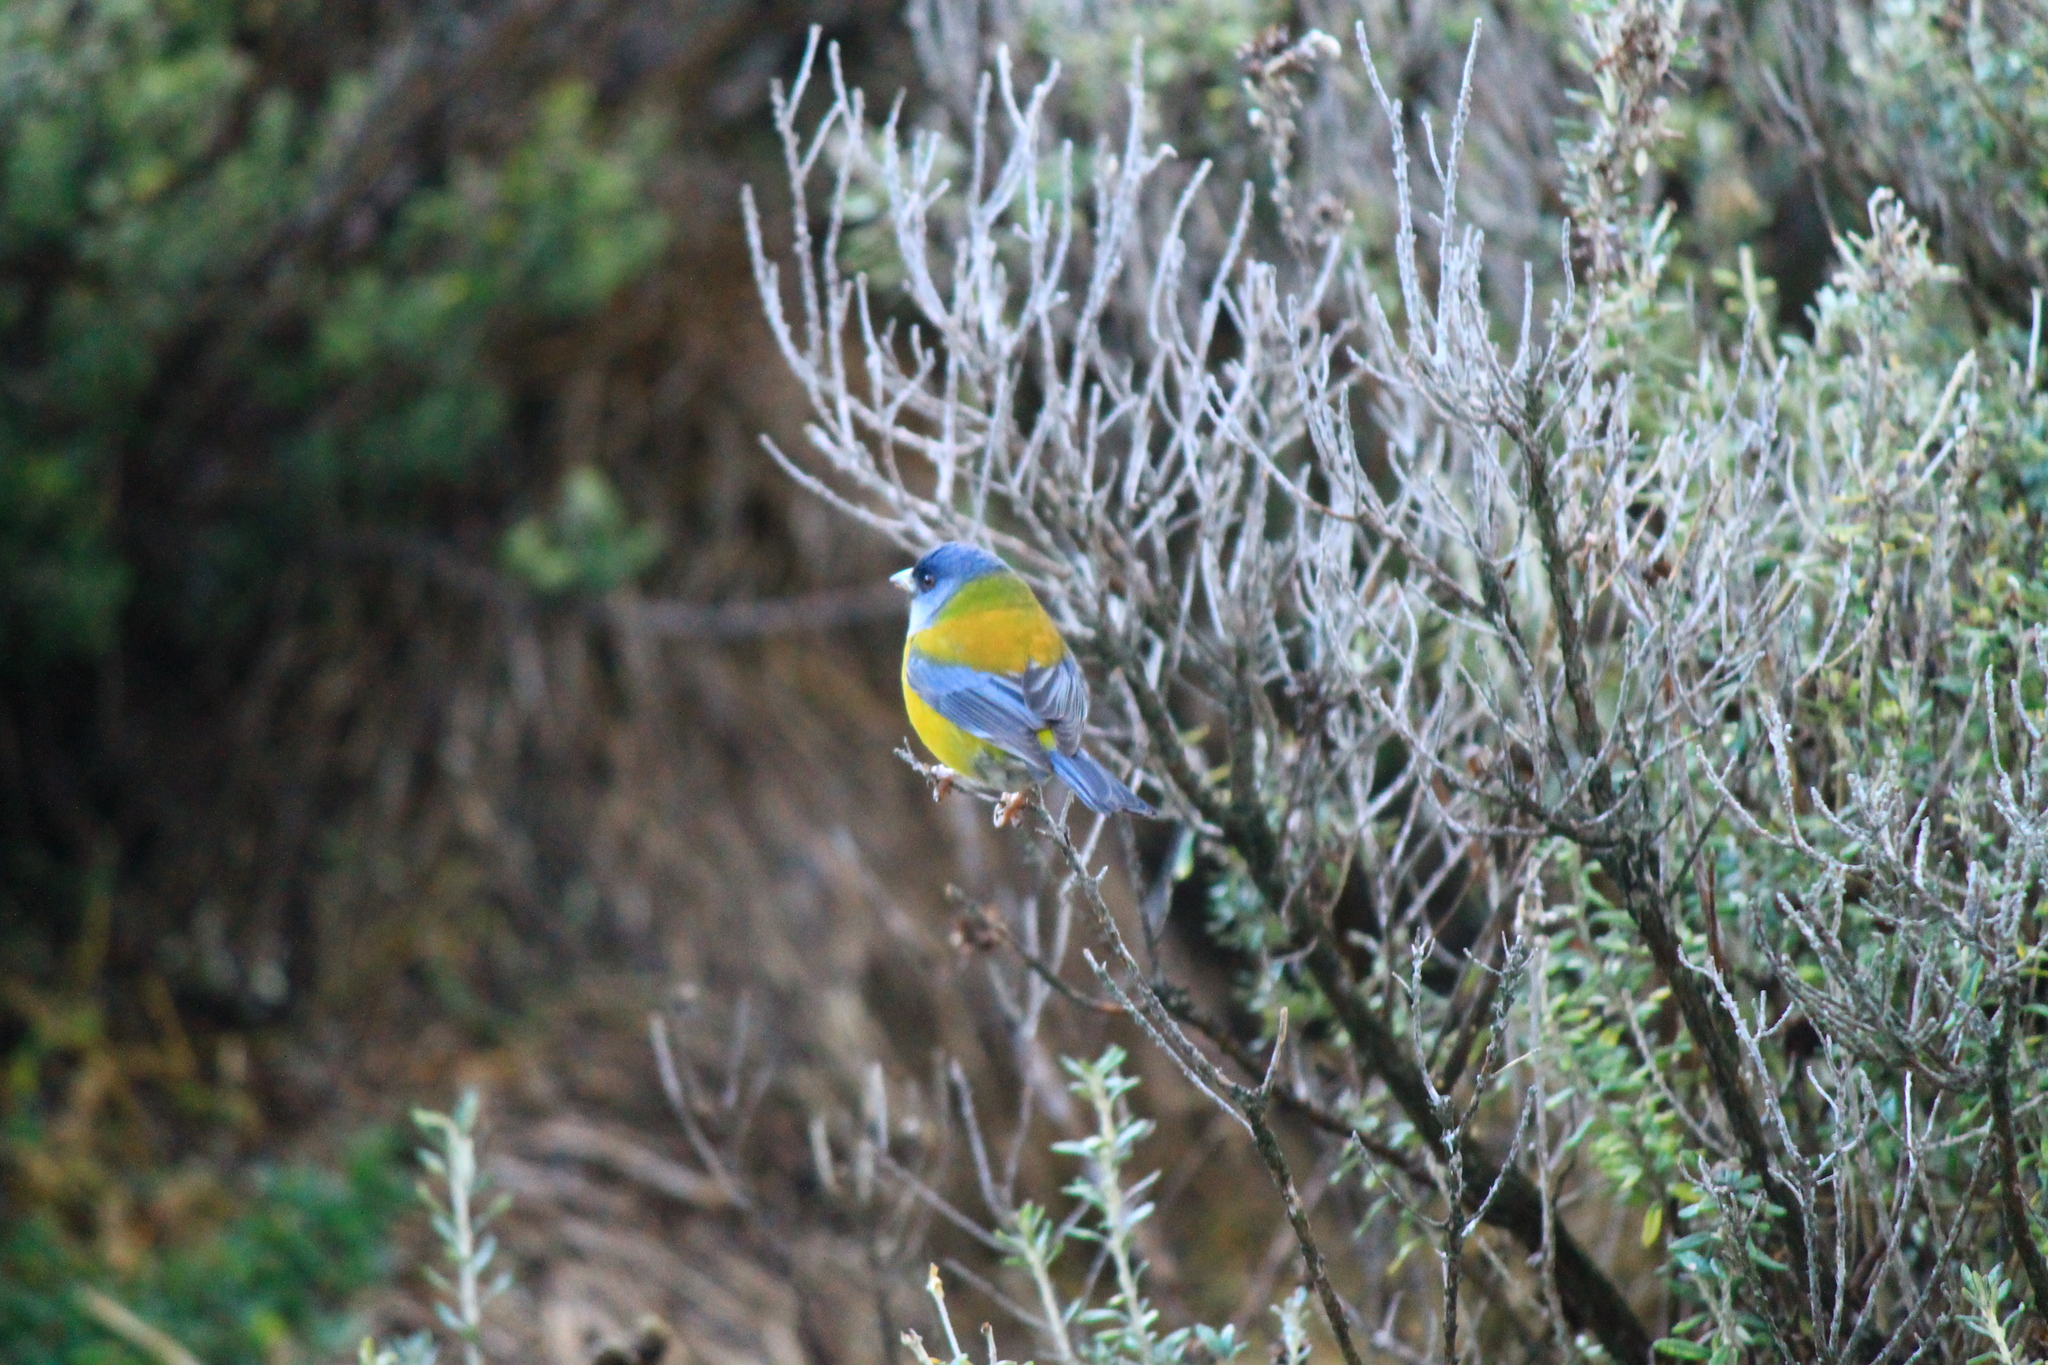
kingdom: Animalia
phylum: Chordata
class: Aves
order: Passeriformes
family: Thraupidae
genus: Phrygilus
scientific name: Phrygilus patagonicus
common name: Patagonian sierra finch
